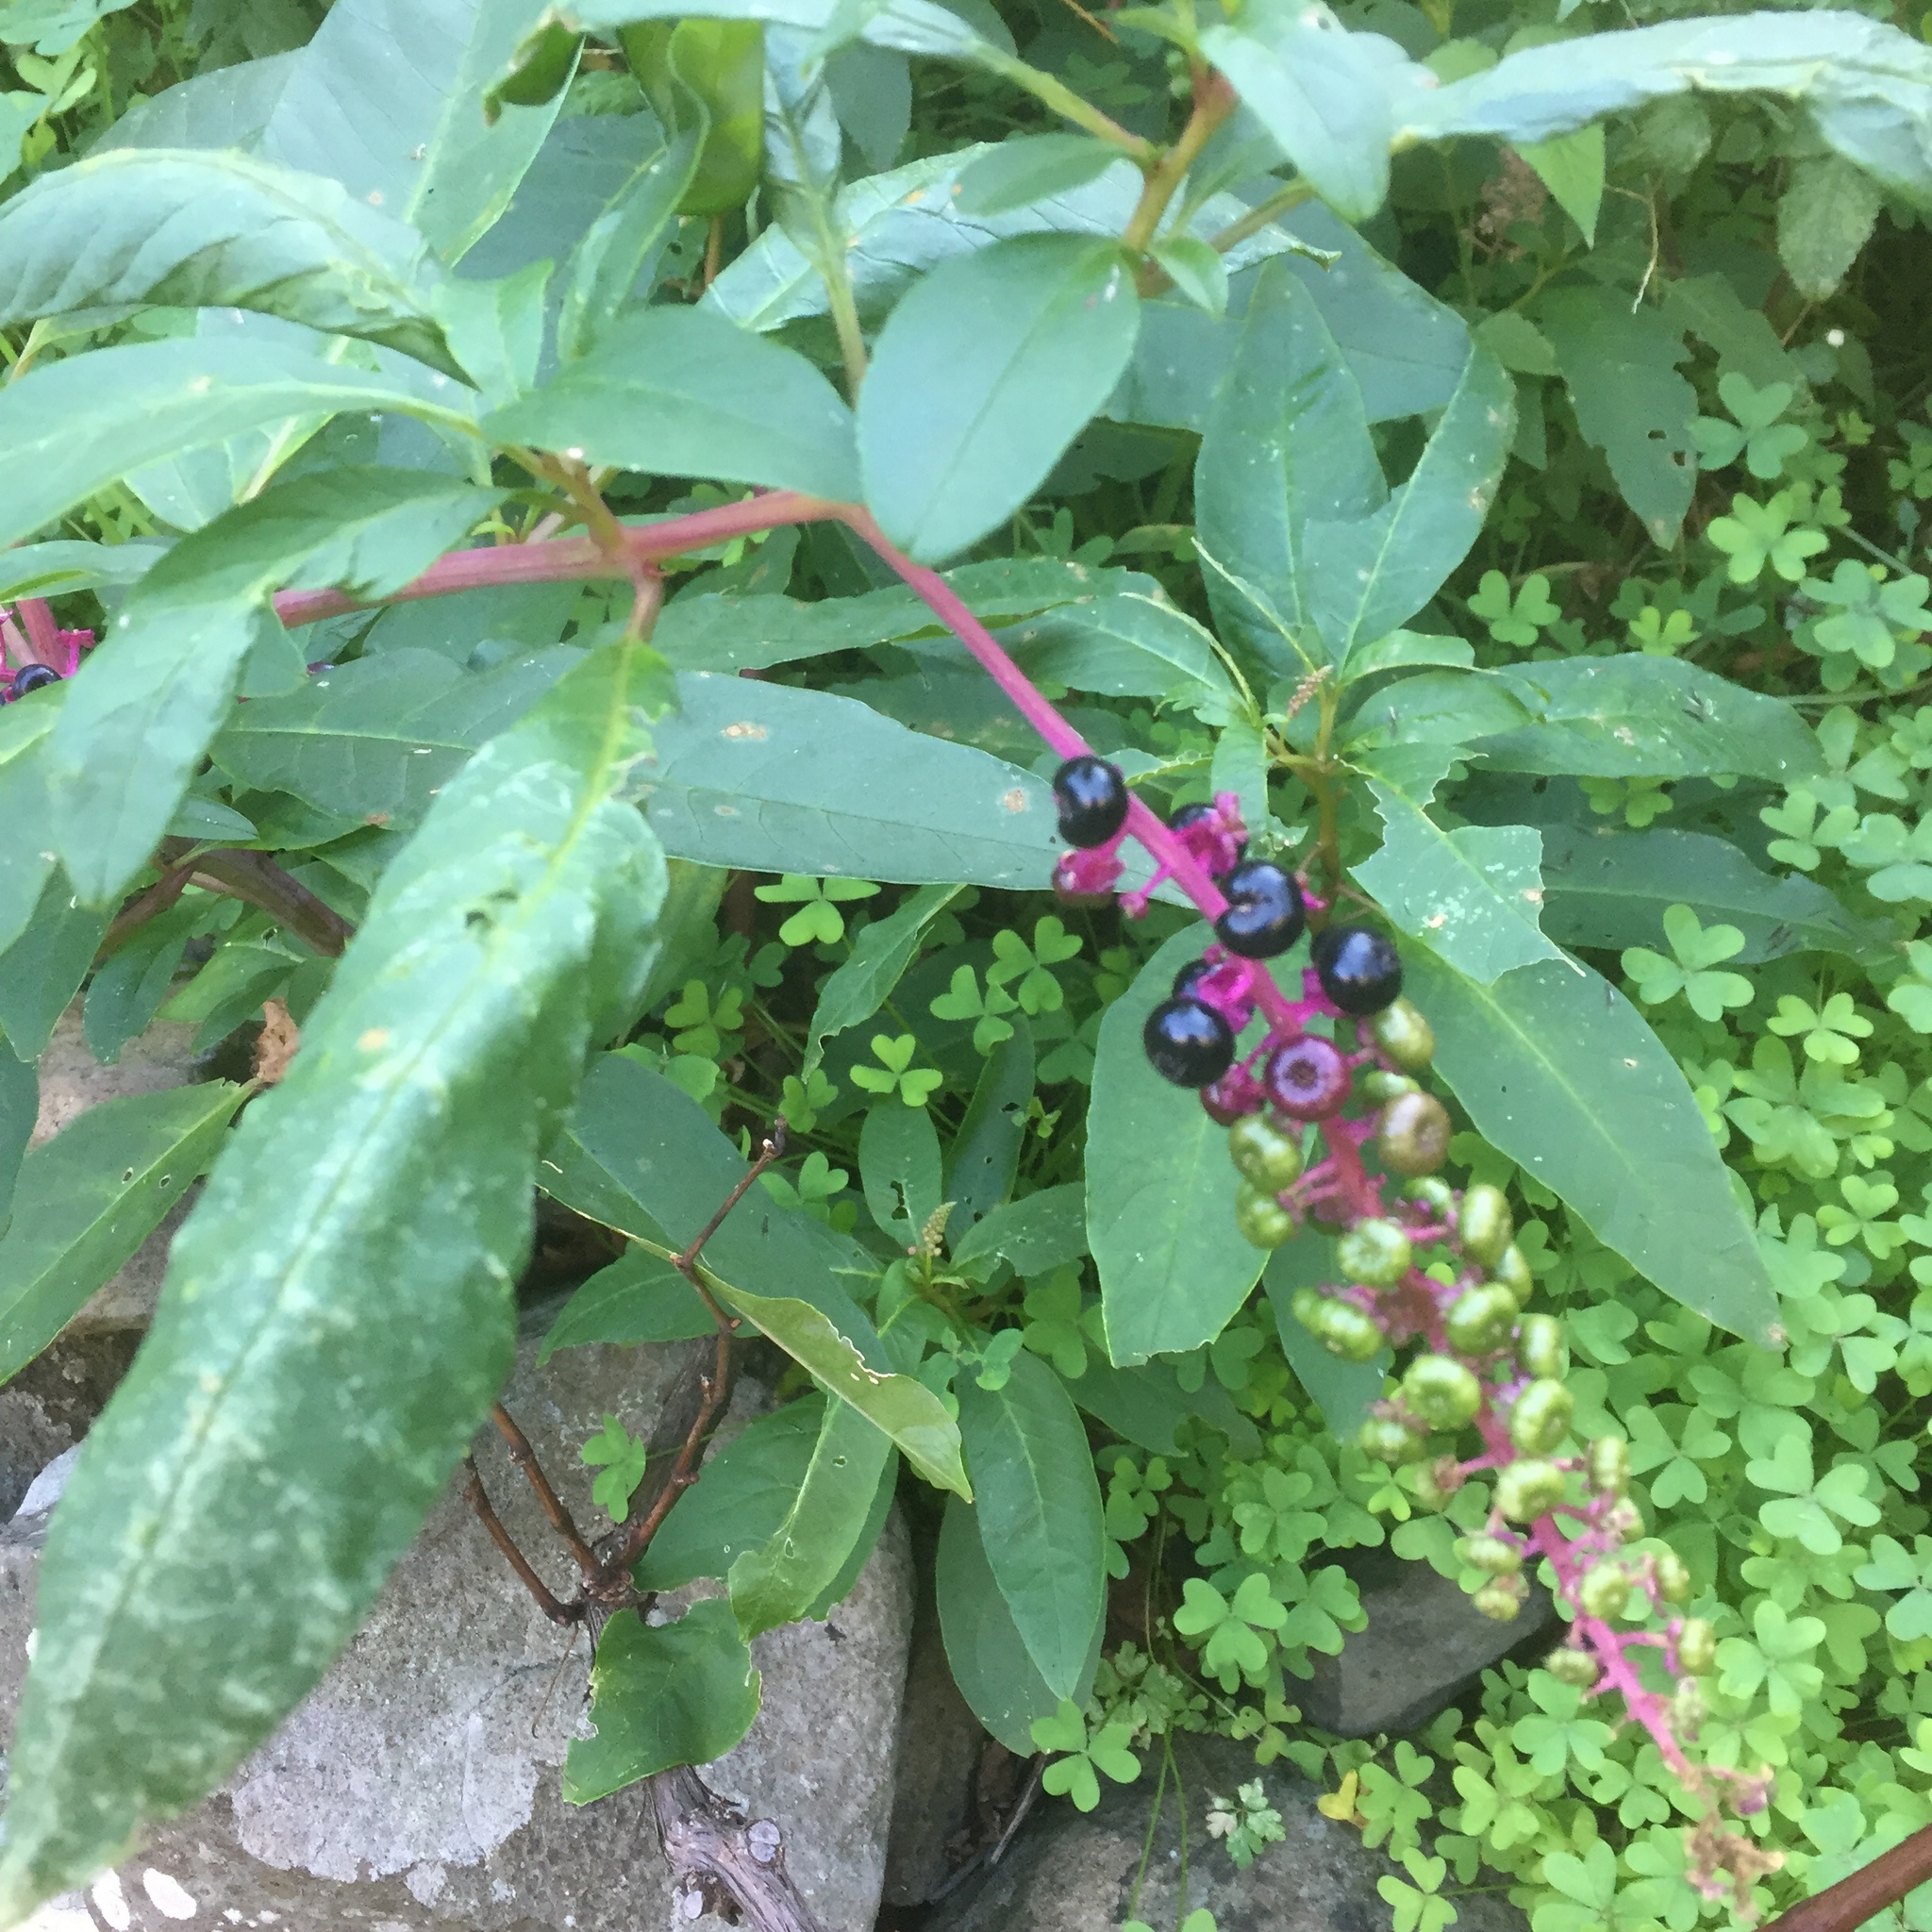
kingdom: Plantae
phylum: Tracheophyta
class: Magnoliopsida
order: Caryophyllales
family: Phytolaccaceae
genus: Phytolacca
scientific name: Phytolacca americana
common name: American pokeweed
